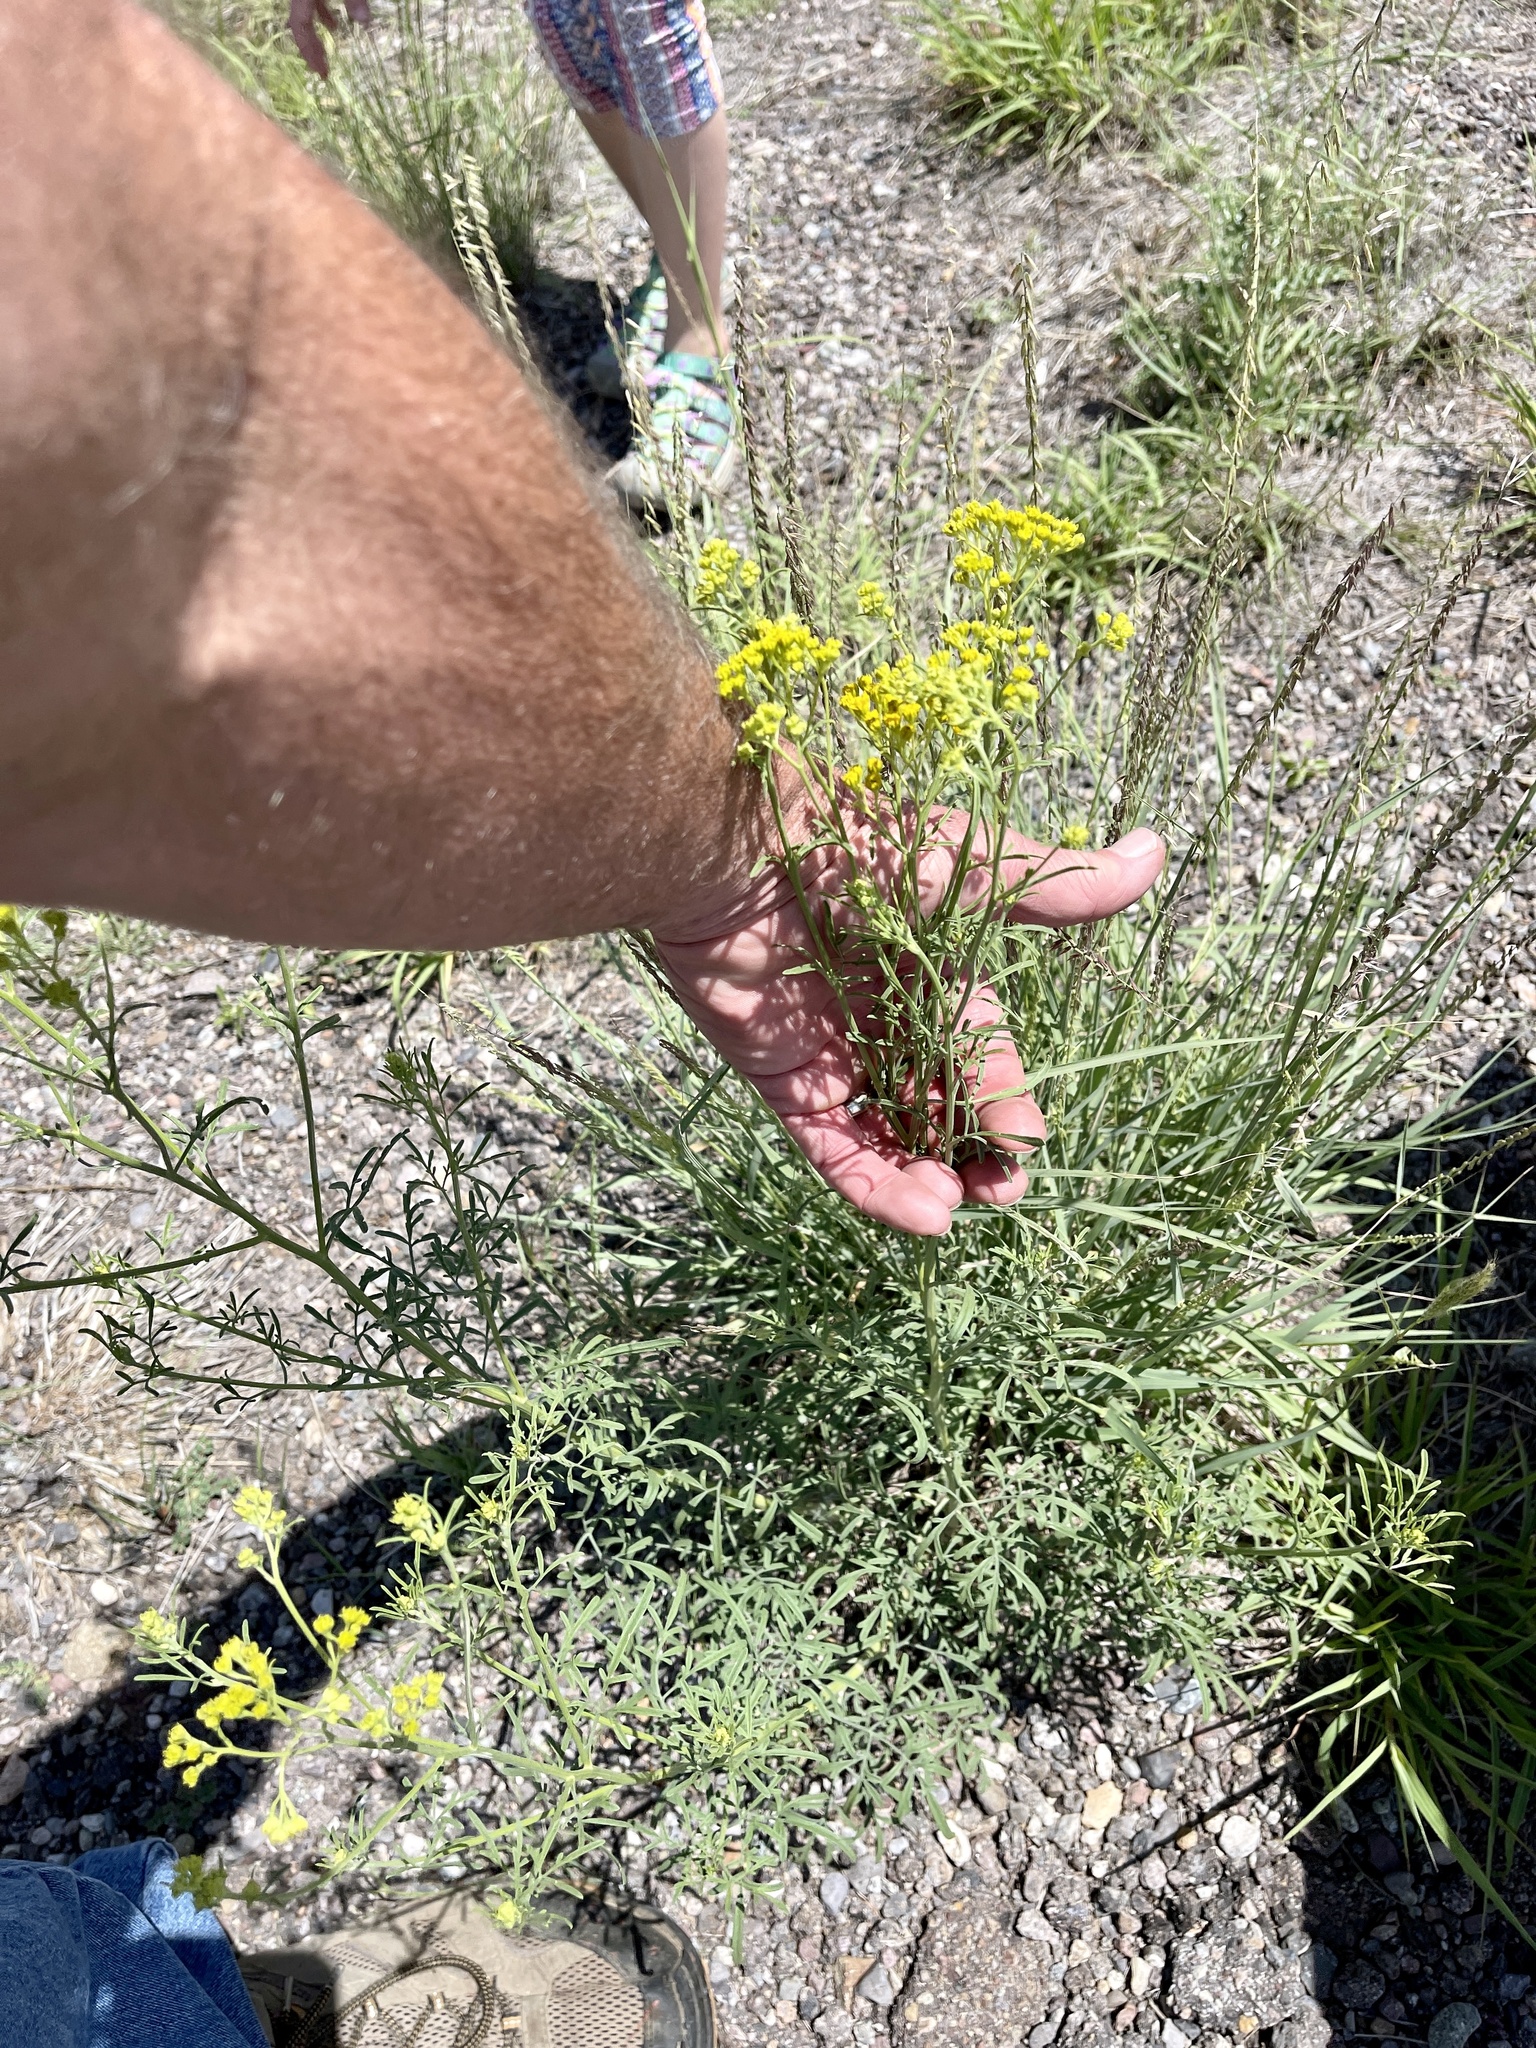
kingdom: Plantae
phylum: Tracheophyta
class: Magnoliopsida
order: Asterales
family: Asteraceae
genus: Hymenothrix
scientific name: Hymenothrix wislizeni
